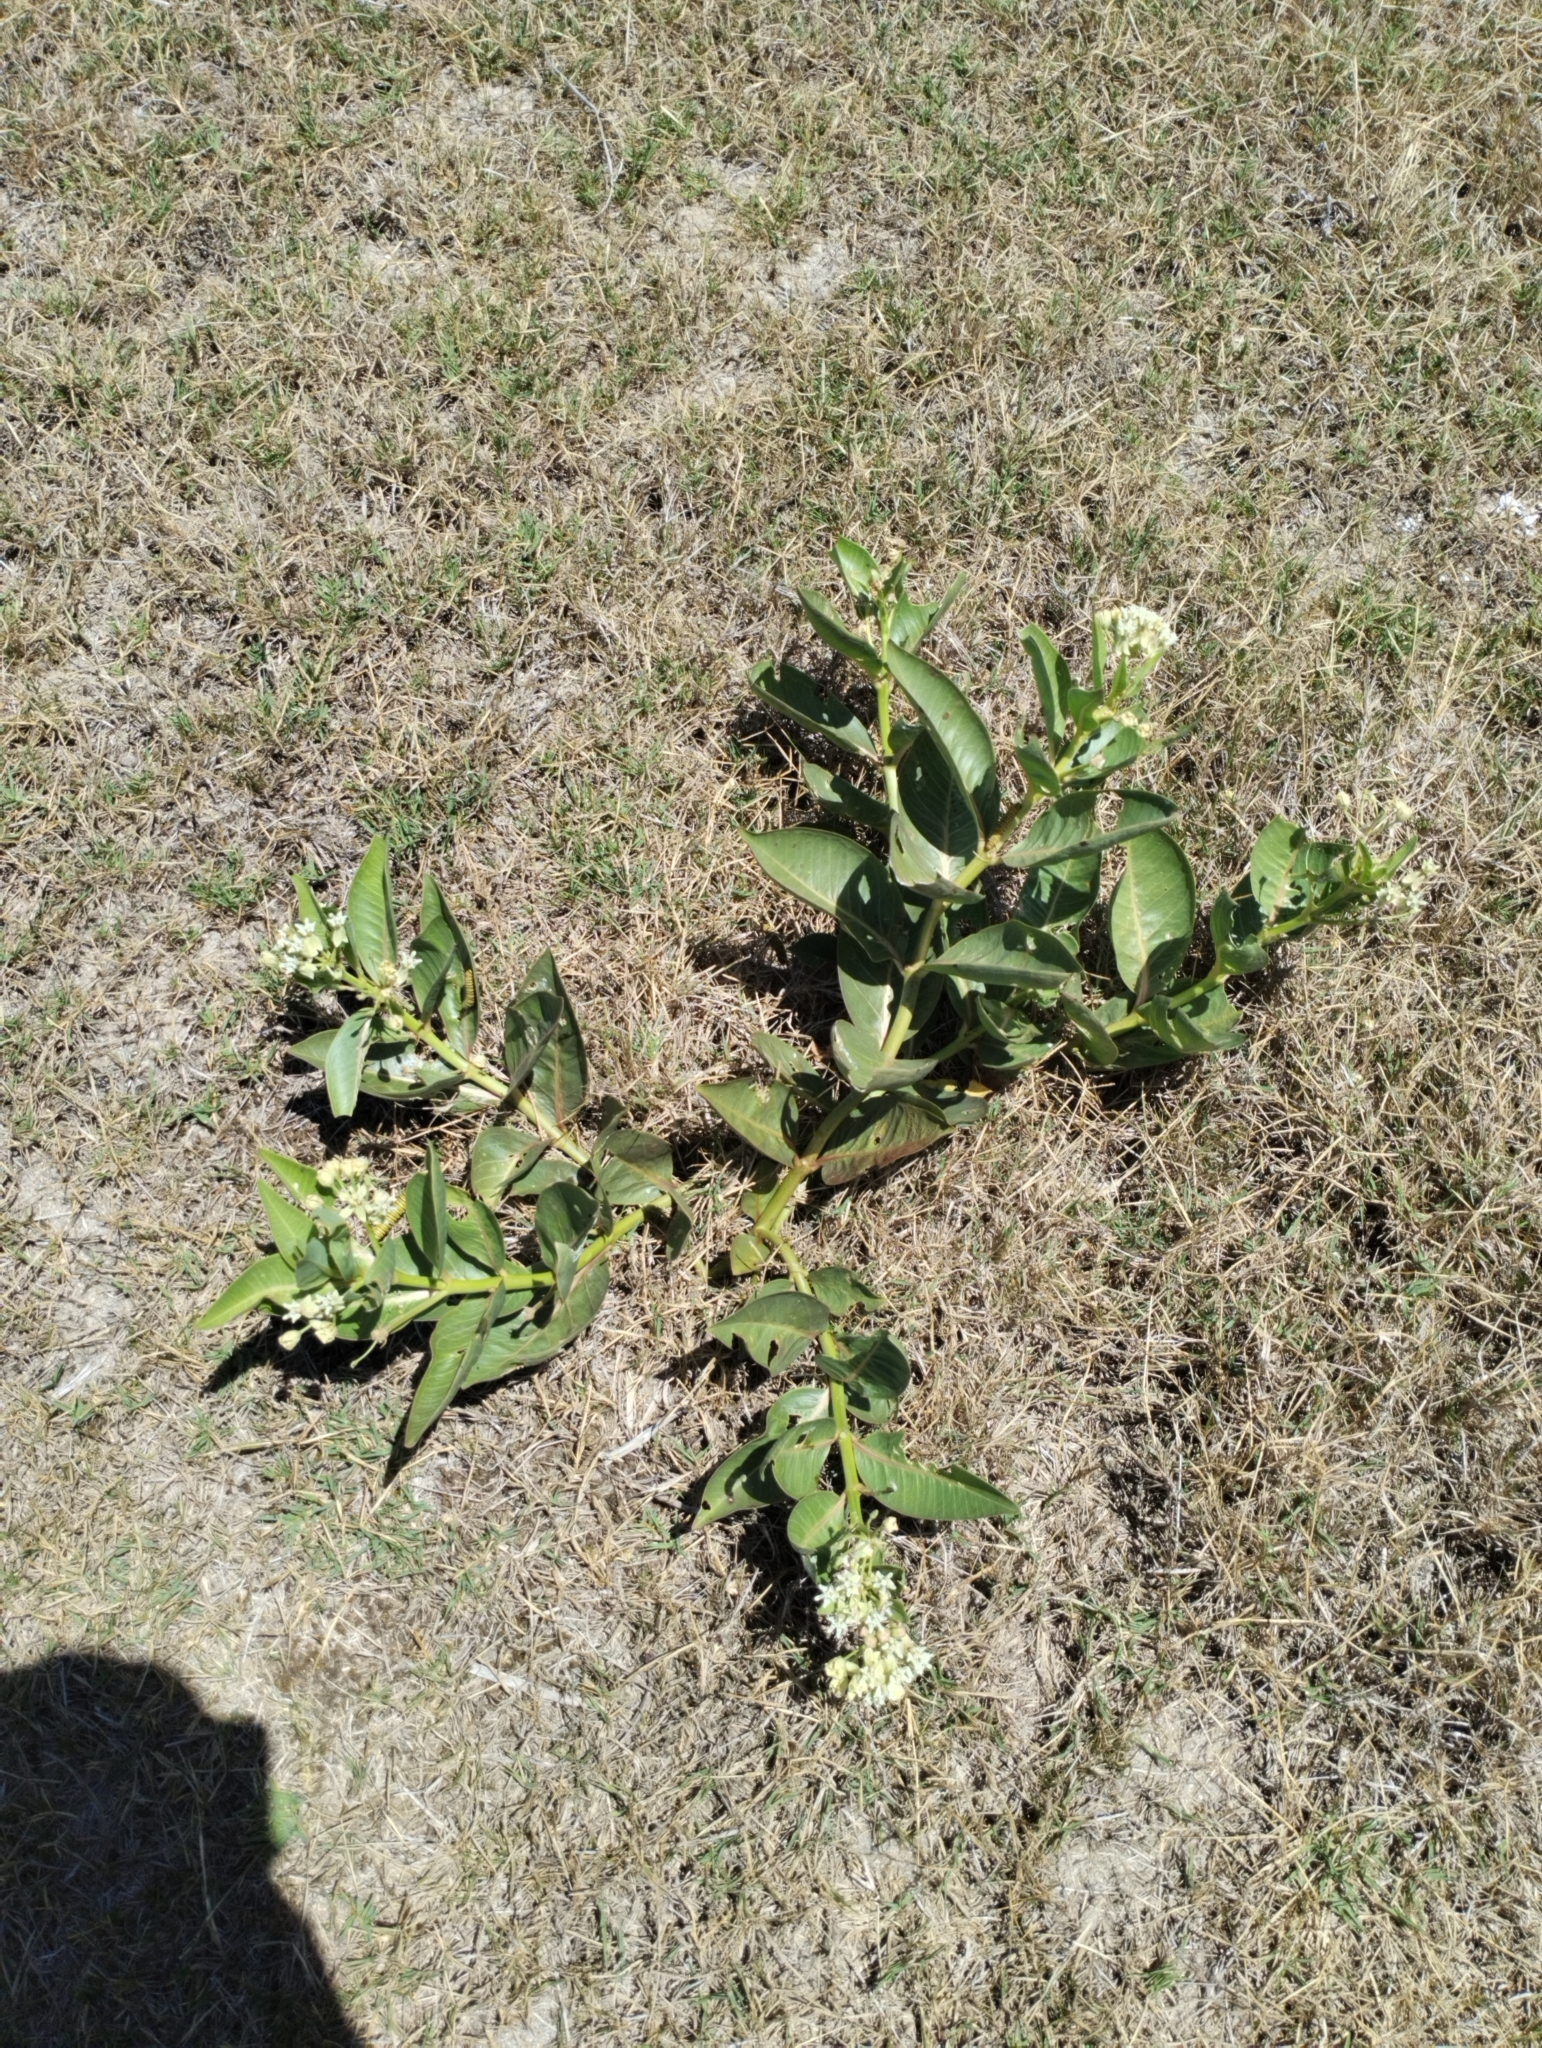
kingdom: Plantae
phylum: Tracheophyta
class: Magnoliopsida
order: Gentianales
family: Apocynaceae
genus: Asclepias
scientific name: Asclepias candida
